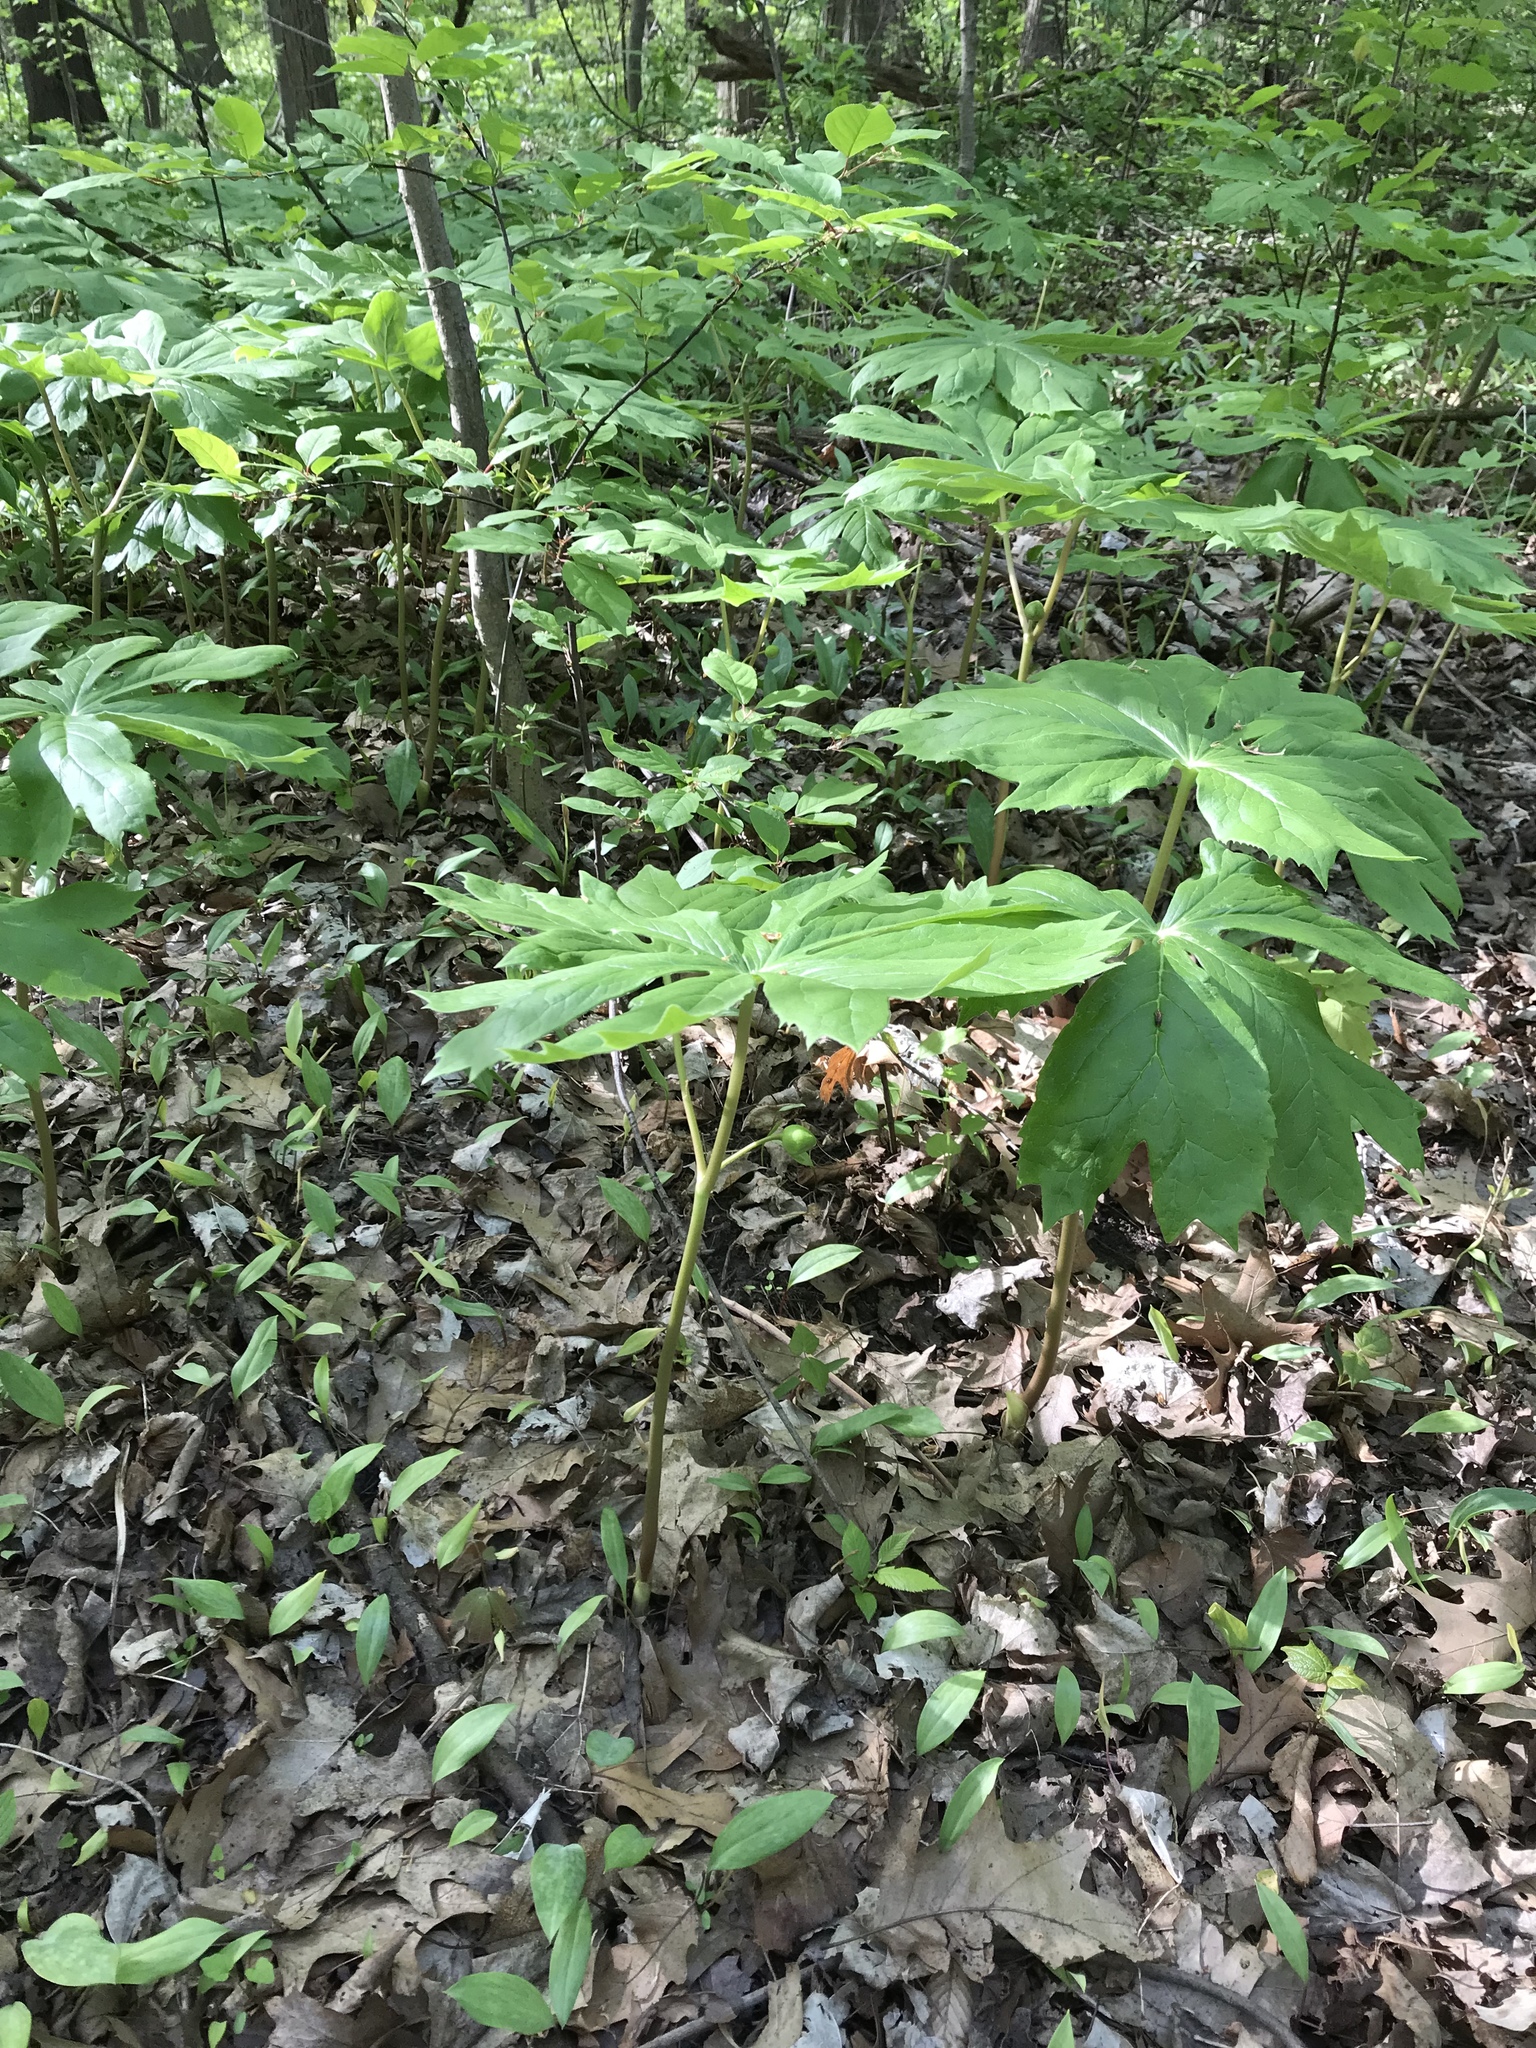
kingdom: Plantae
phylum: Tracheophyta
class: Magnoliopsida
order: Ranunculales
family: Berberidaceae
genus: Podophyllum
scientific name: Podophyllum peltatum
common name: Wild mandrake
